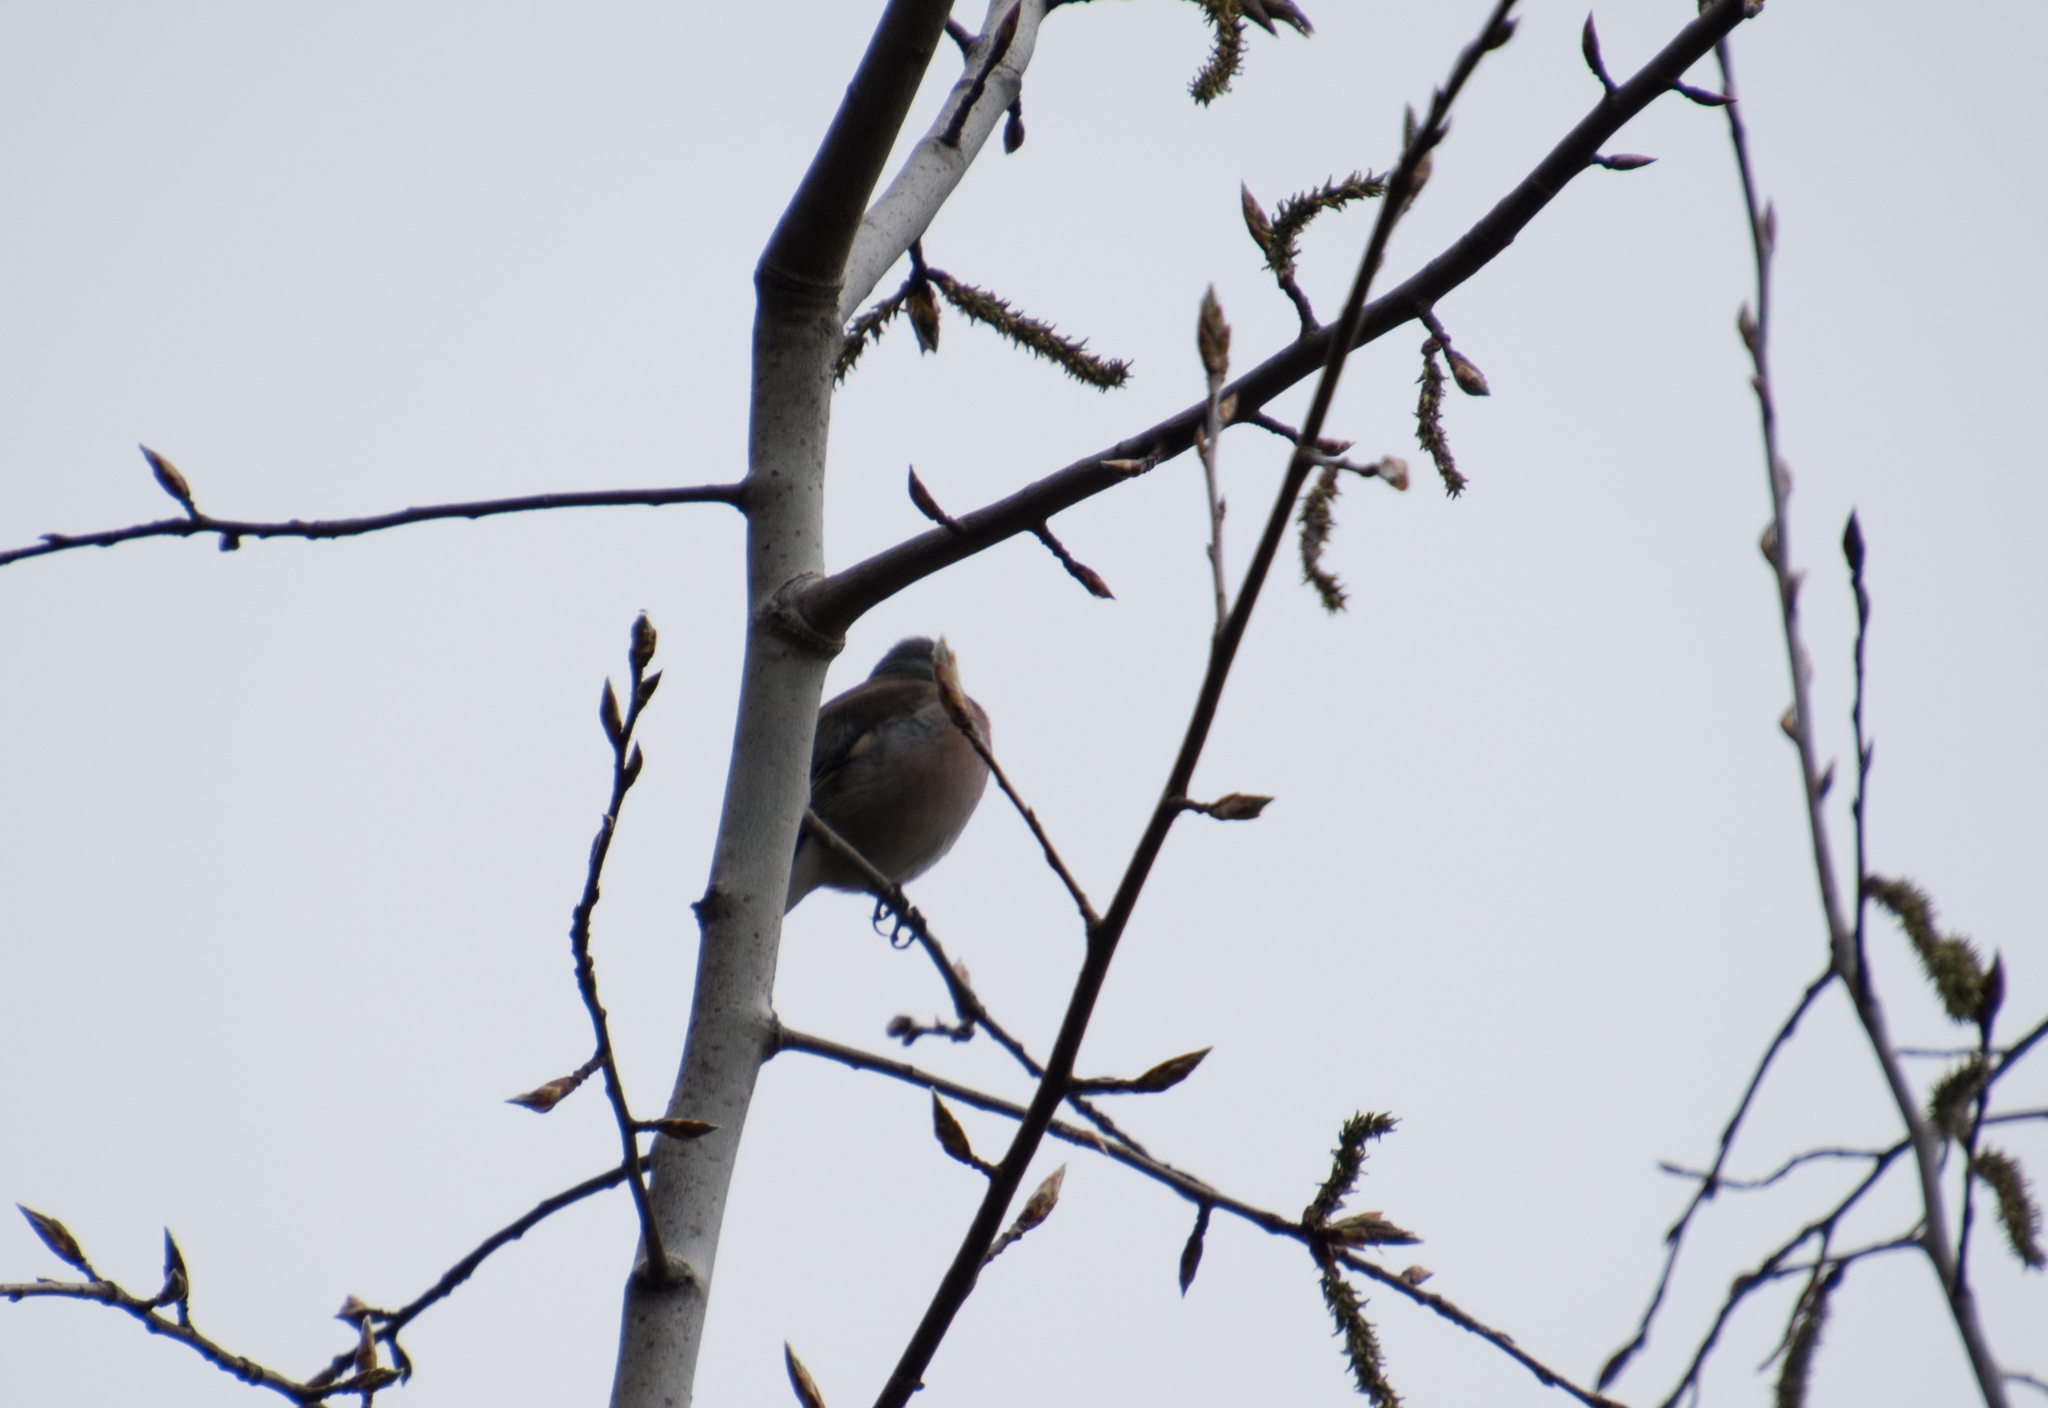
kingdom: Animalia
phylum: Chordata
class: Aves
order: Passeriformes
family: Fringillidae
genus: Fringilla
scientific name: Fringilla coelebs
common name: Common chaffinch
